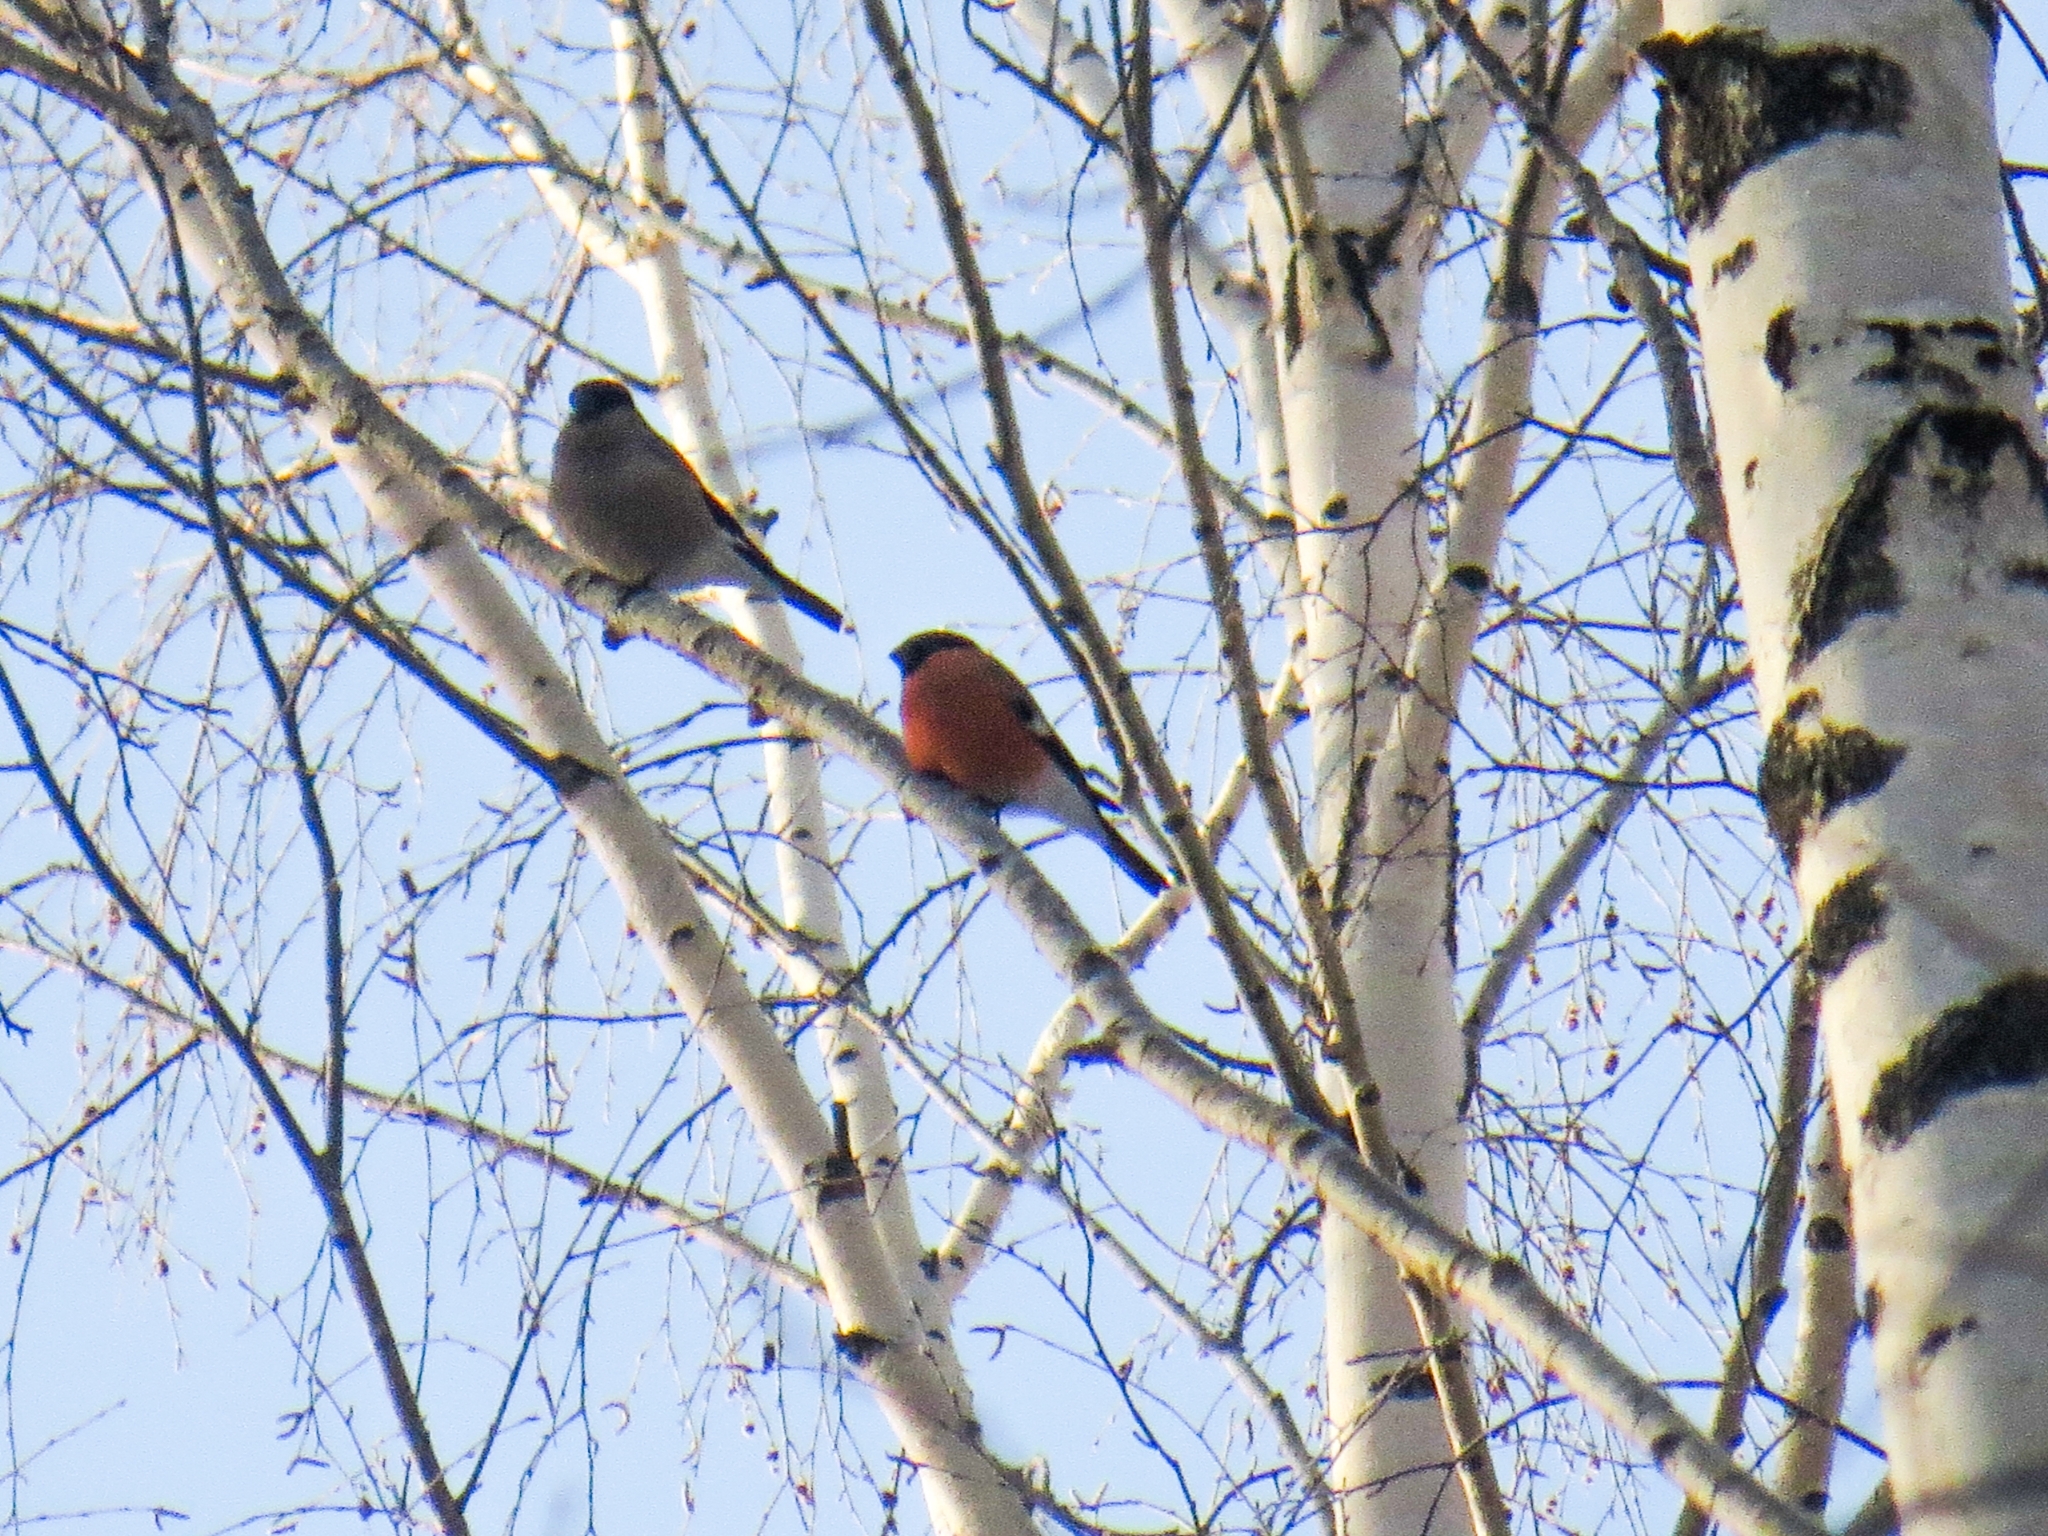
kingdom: Animalia
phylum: Chordata
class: Aves
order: Passeriformes
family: Fringillidae
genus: Pyrrhula
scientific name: Pyrrhula pyrrhula
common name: Eurasian bullfinch
